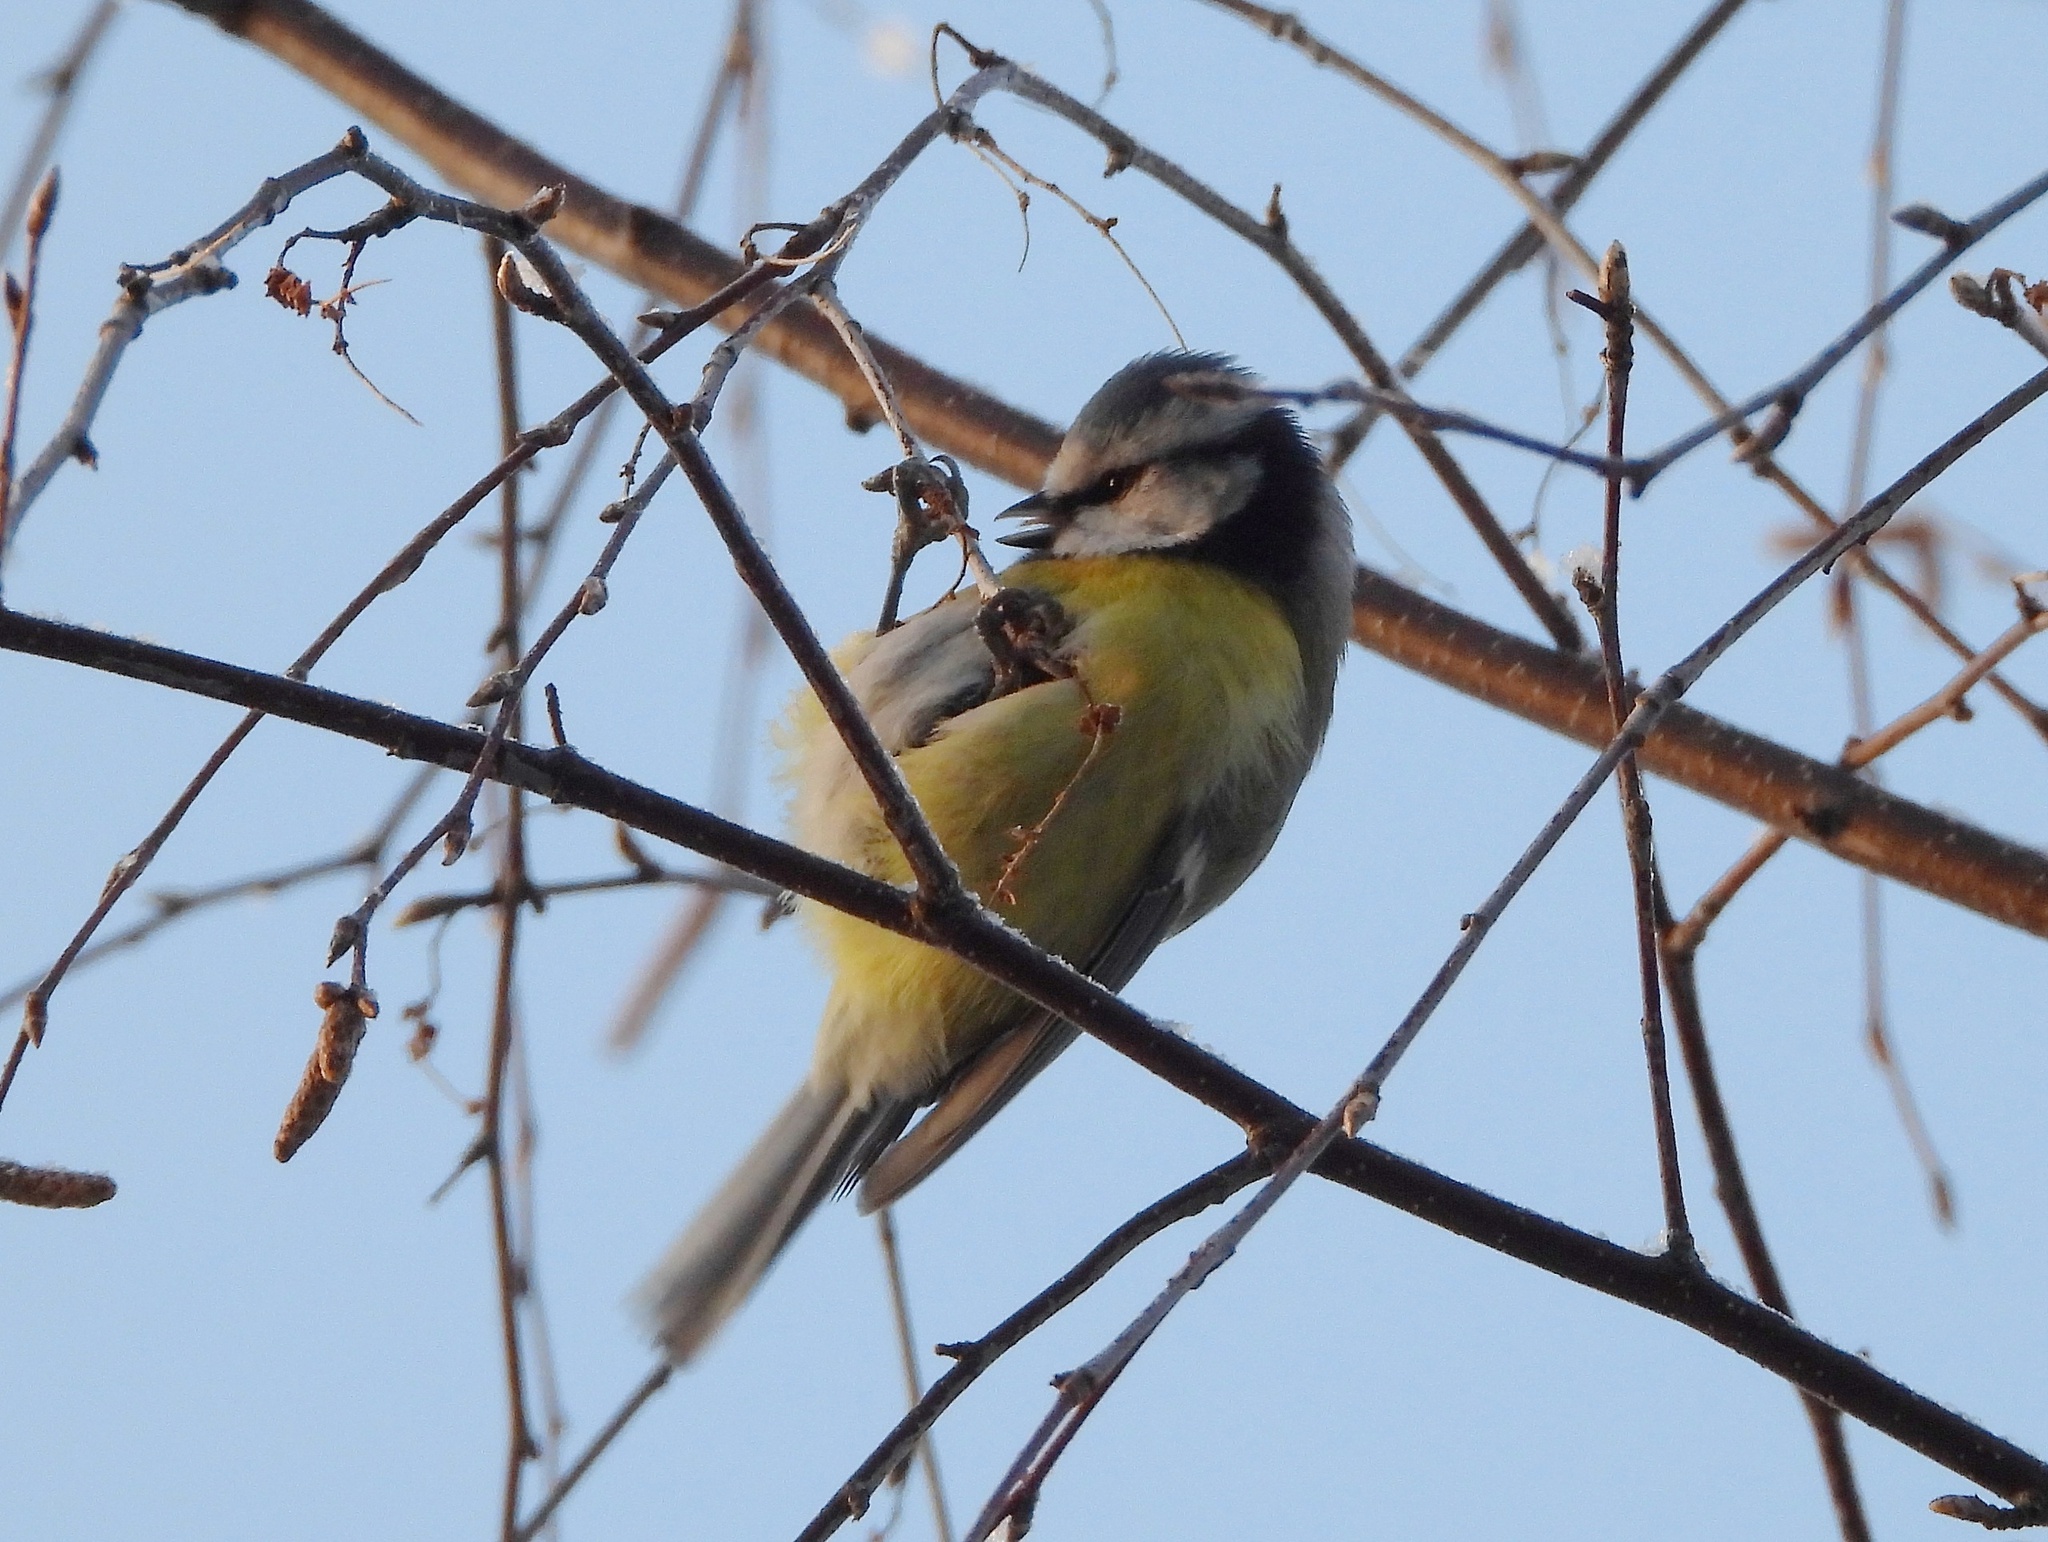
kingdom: Animalia
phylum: Chordata
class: Aves
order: Passeriformes
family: Paridae
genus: Cyanistes
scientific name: Cyanistes caeruleus
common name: Eurasian blue tit
